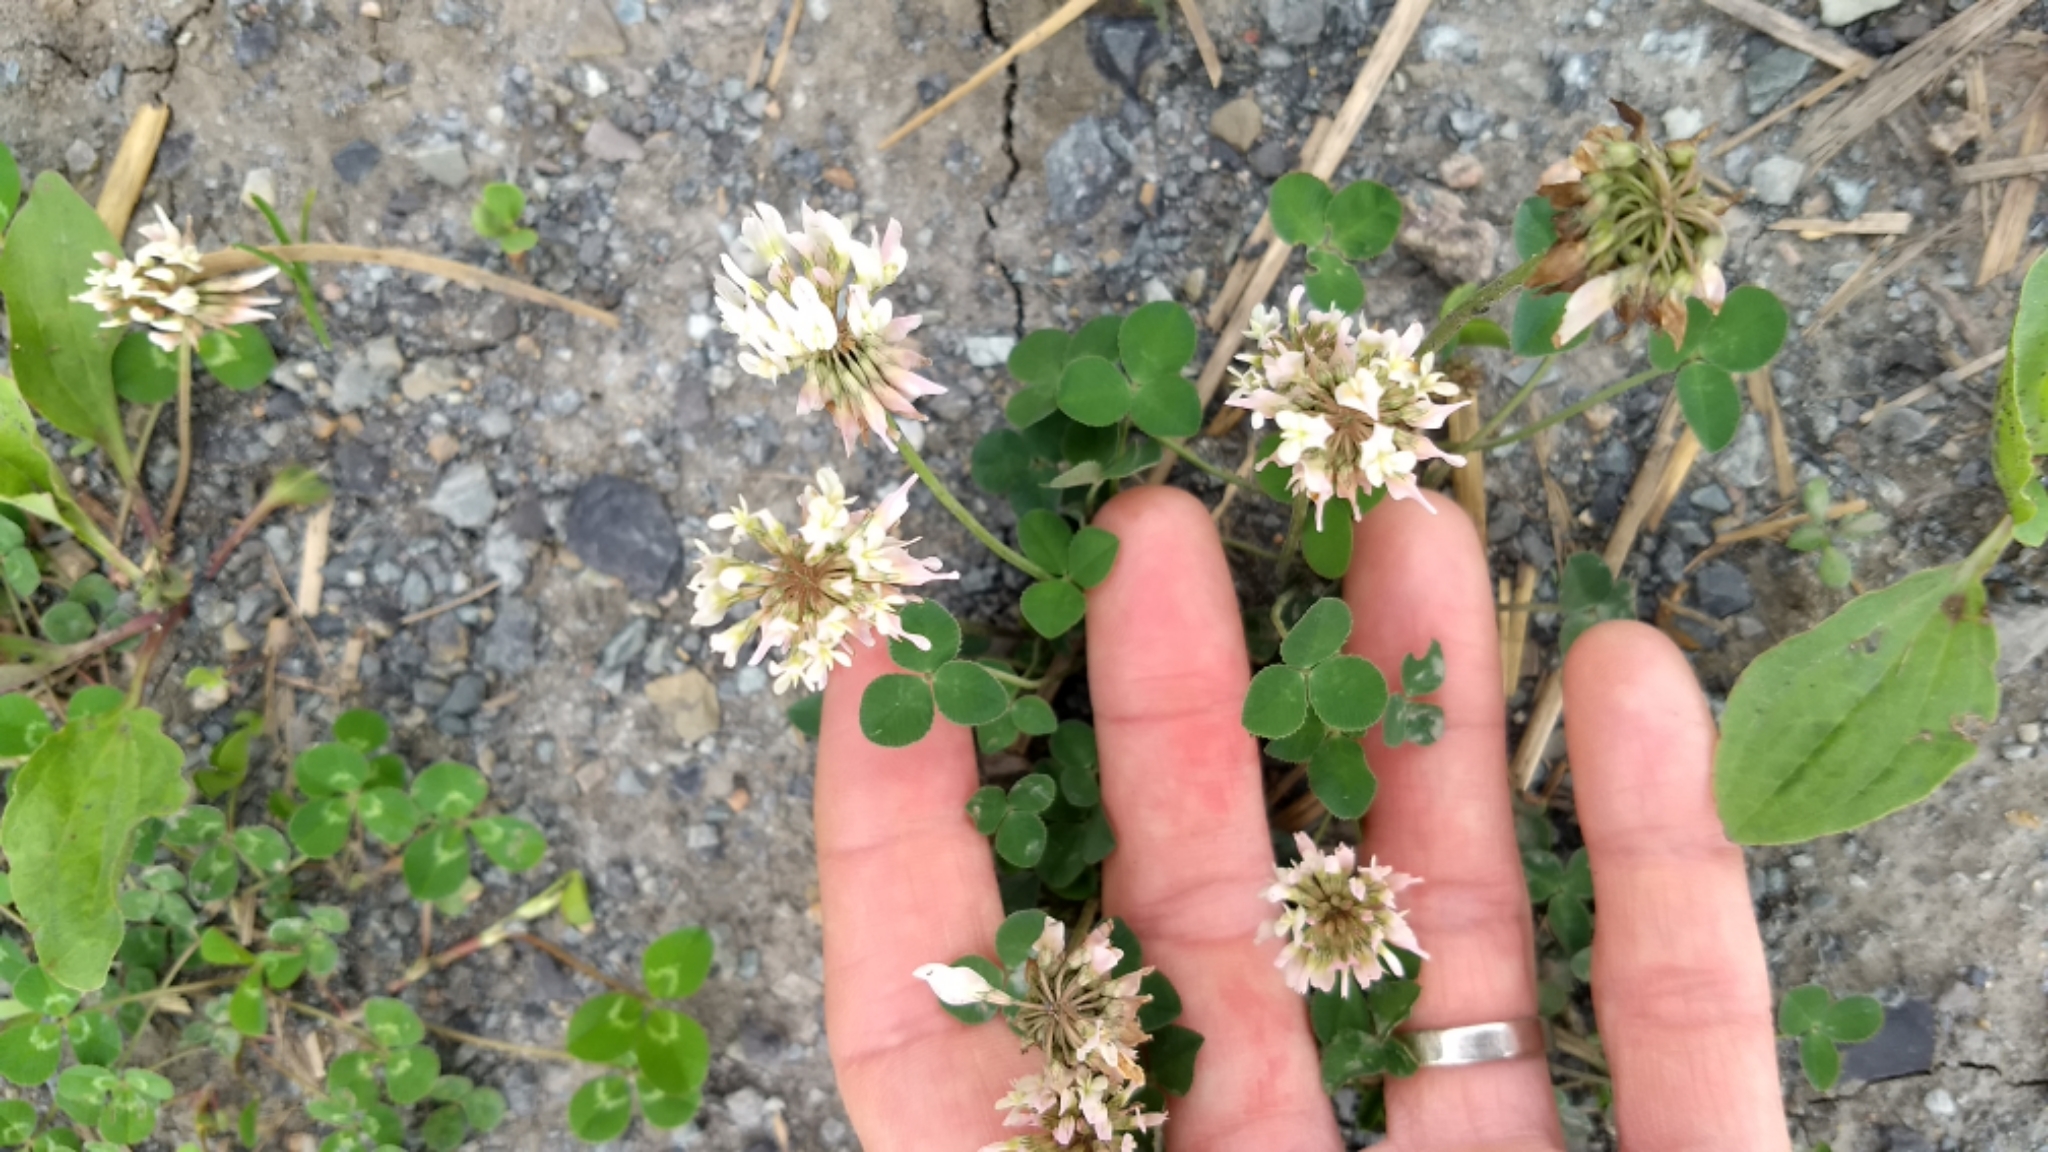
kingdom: Plantae
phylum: Tracheophyta
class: Magnoliopsida
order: Fabales
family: Fabaceae
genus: Trifolium
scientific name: Trifolium repens
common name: White clover
